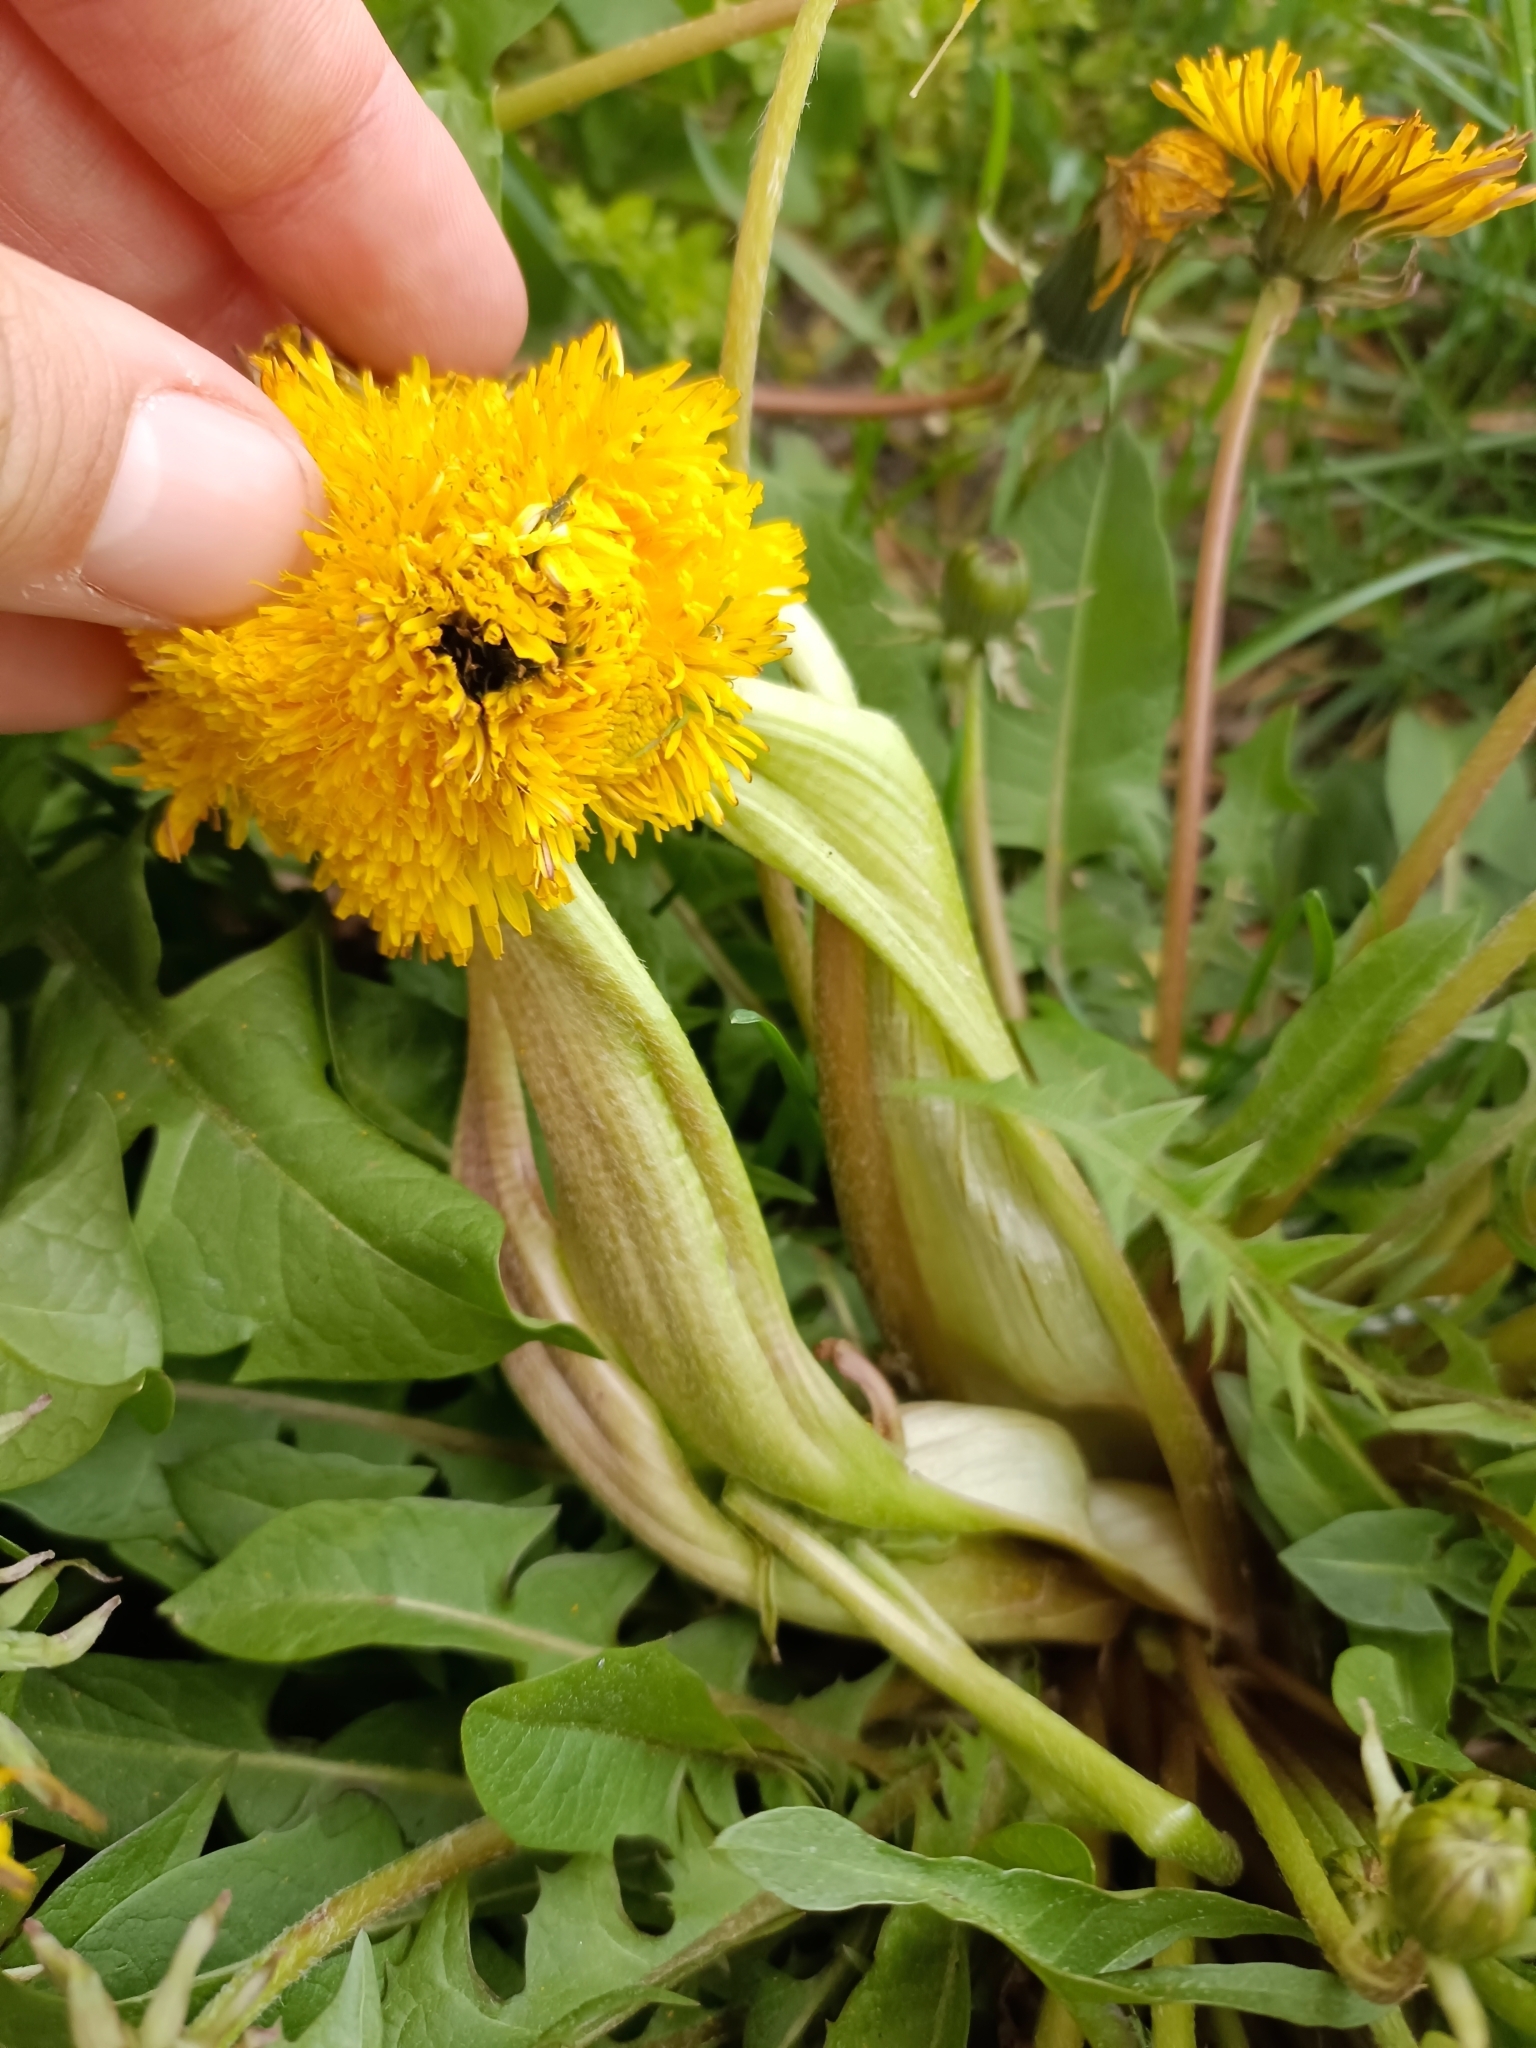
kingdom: Plantae
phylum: Tracheophyta
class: Magnoliopsida
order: Asterales
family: Asteraceae
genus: Taraxacum
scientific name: Taraxacum
